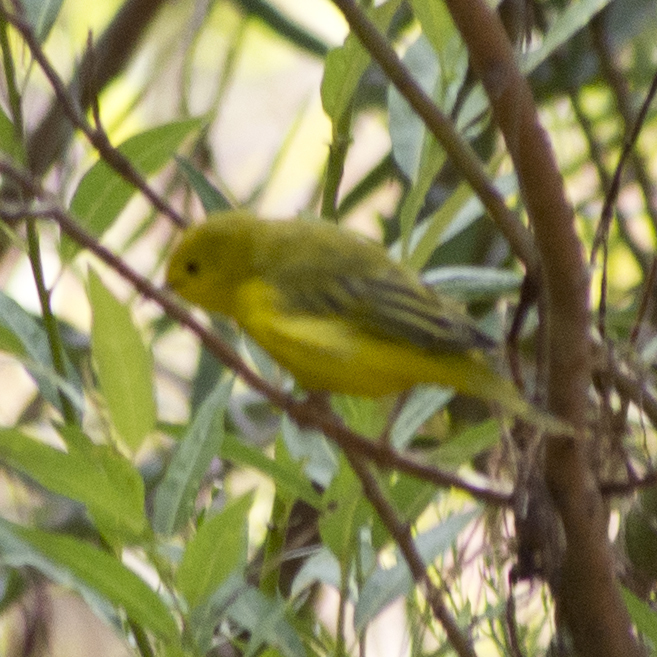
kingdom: Animalia
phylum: Chordata
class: Aves
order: Passeriformes
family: Parulidae
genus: Setophaga
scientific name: Setophaga petechia
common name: Yellow warbler
